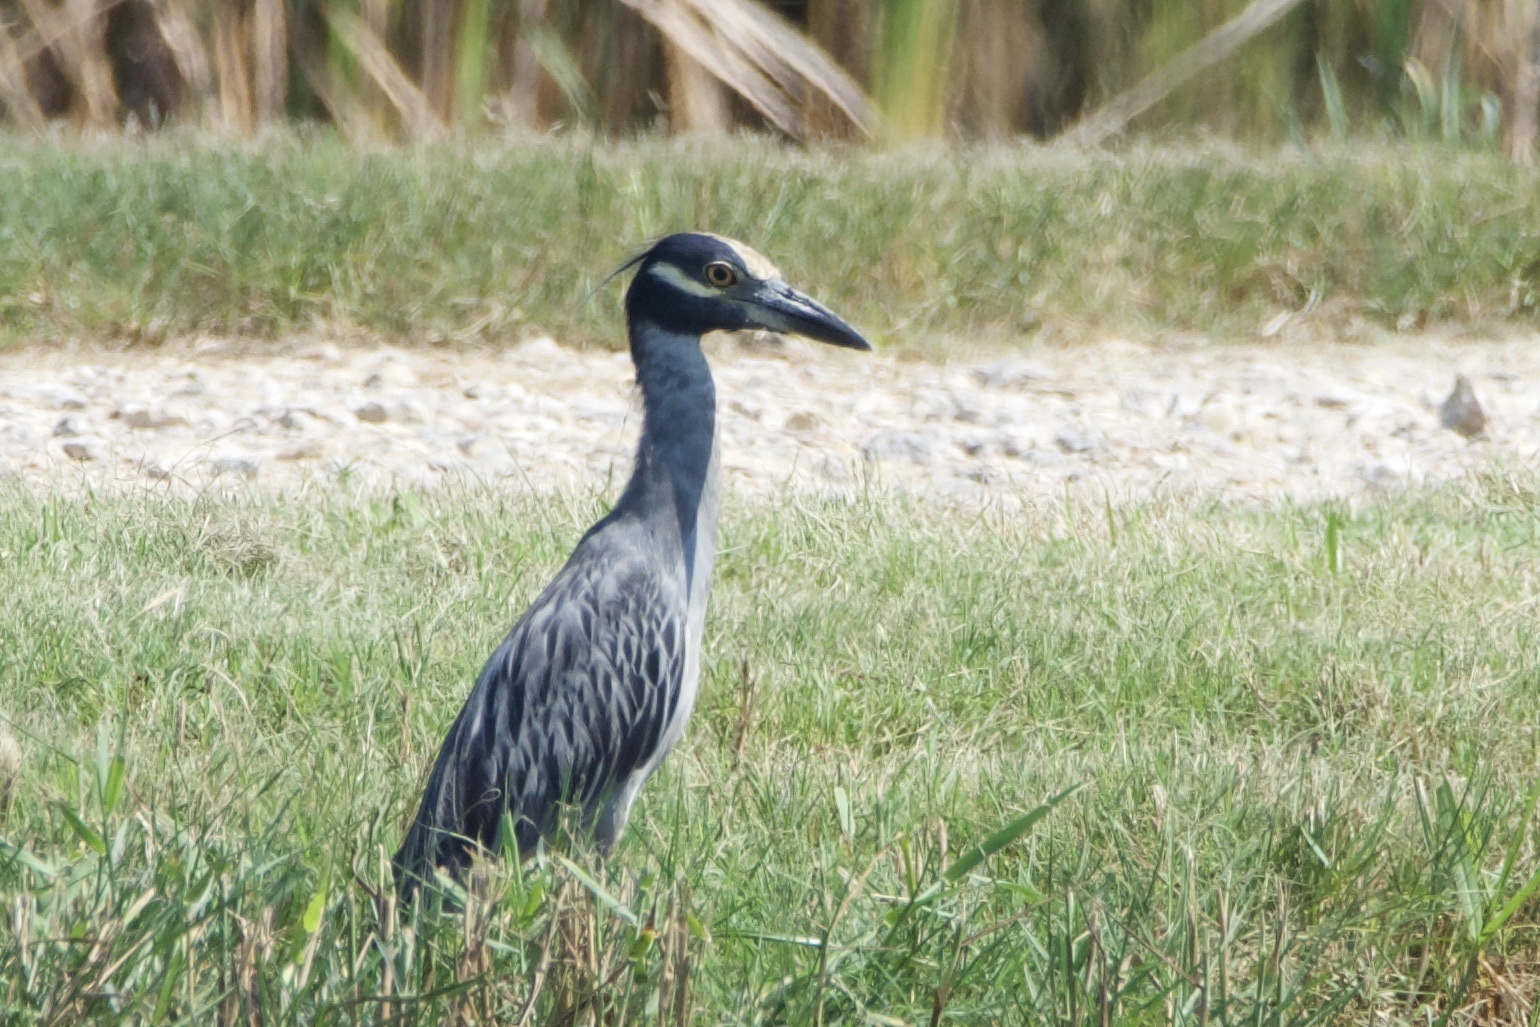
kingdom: Animalia
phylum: Chordata
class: Aves
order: Pelecaniformes
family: Ardeidae
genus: Nyctanassa
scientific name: Nyctanassa violacea
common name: Yellow-crowned night heron
